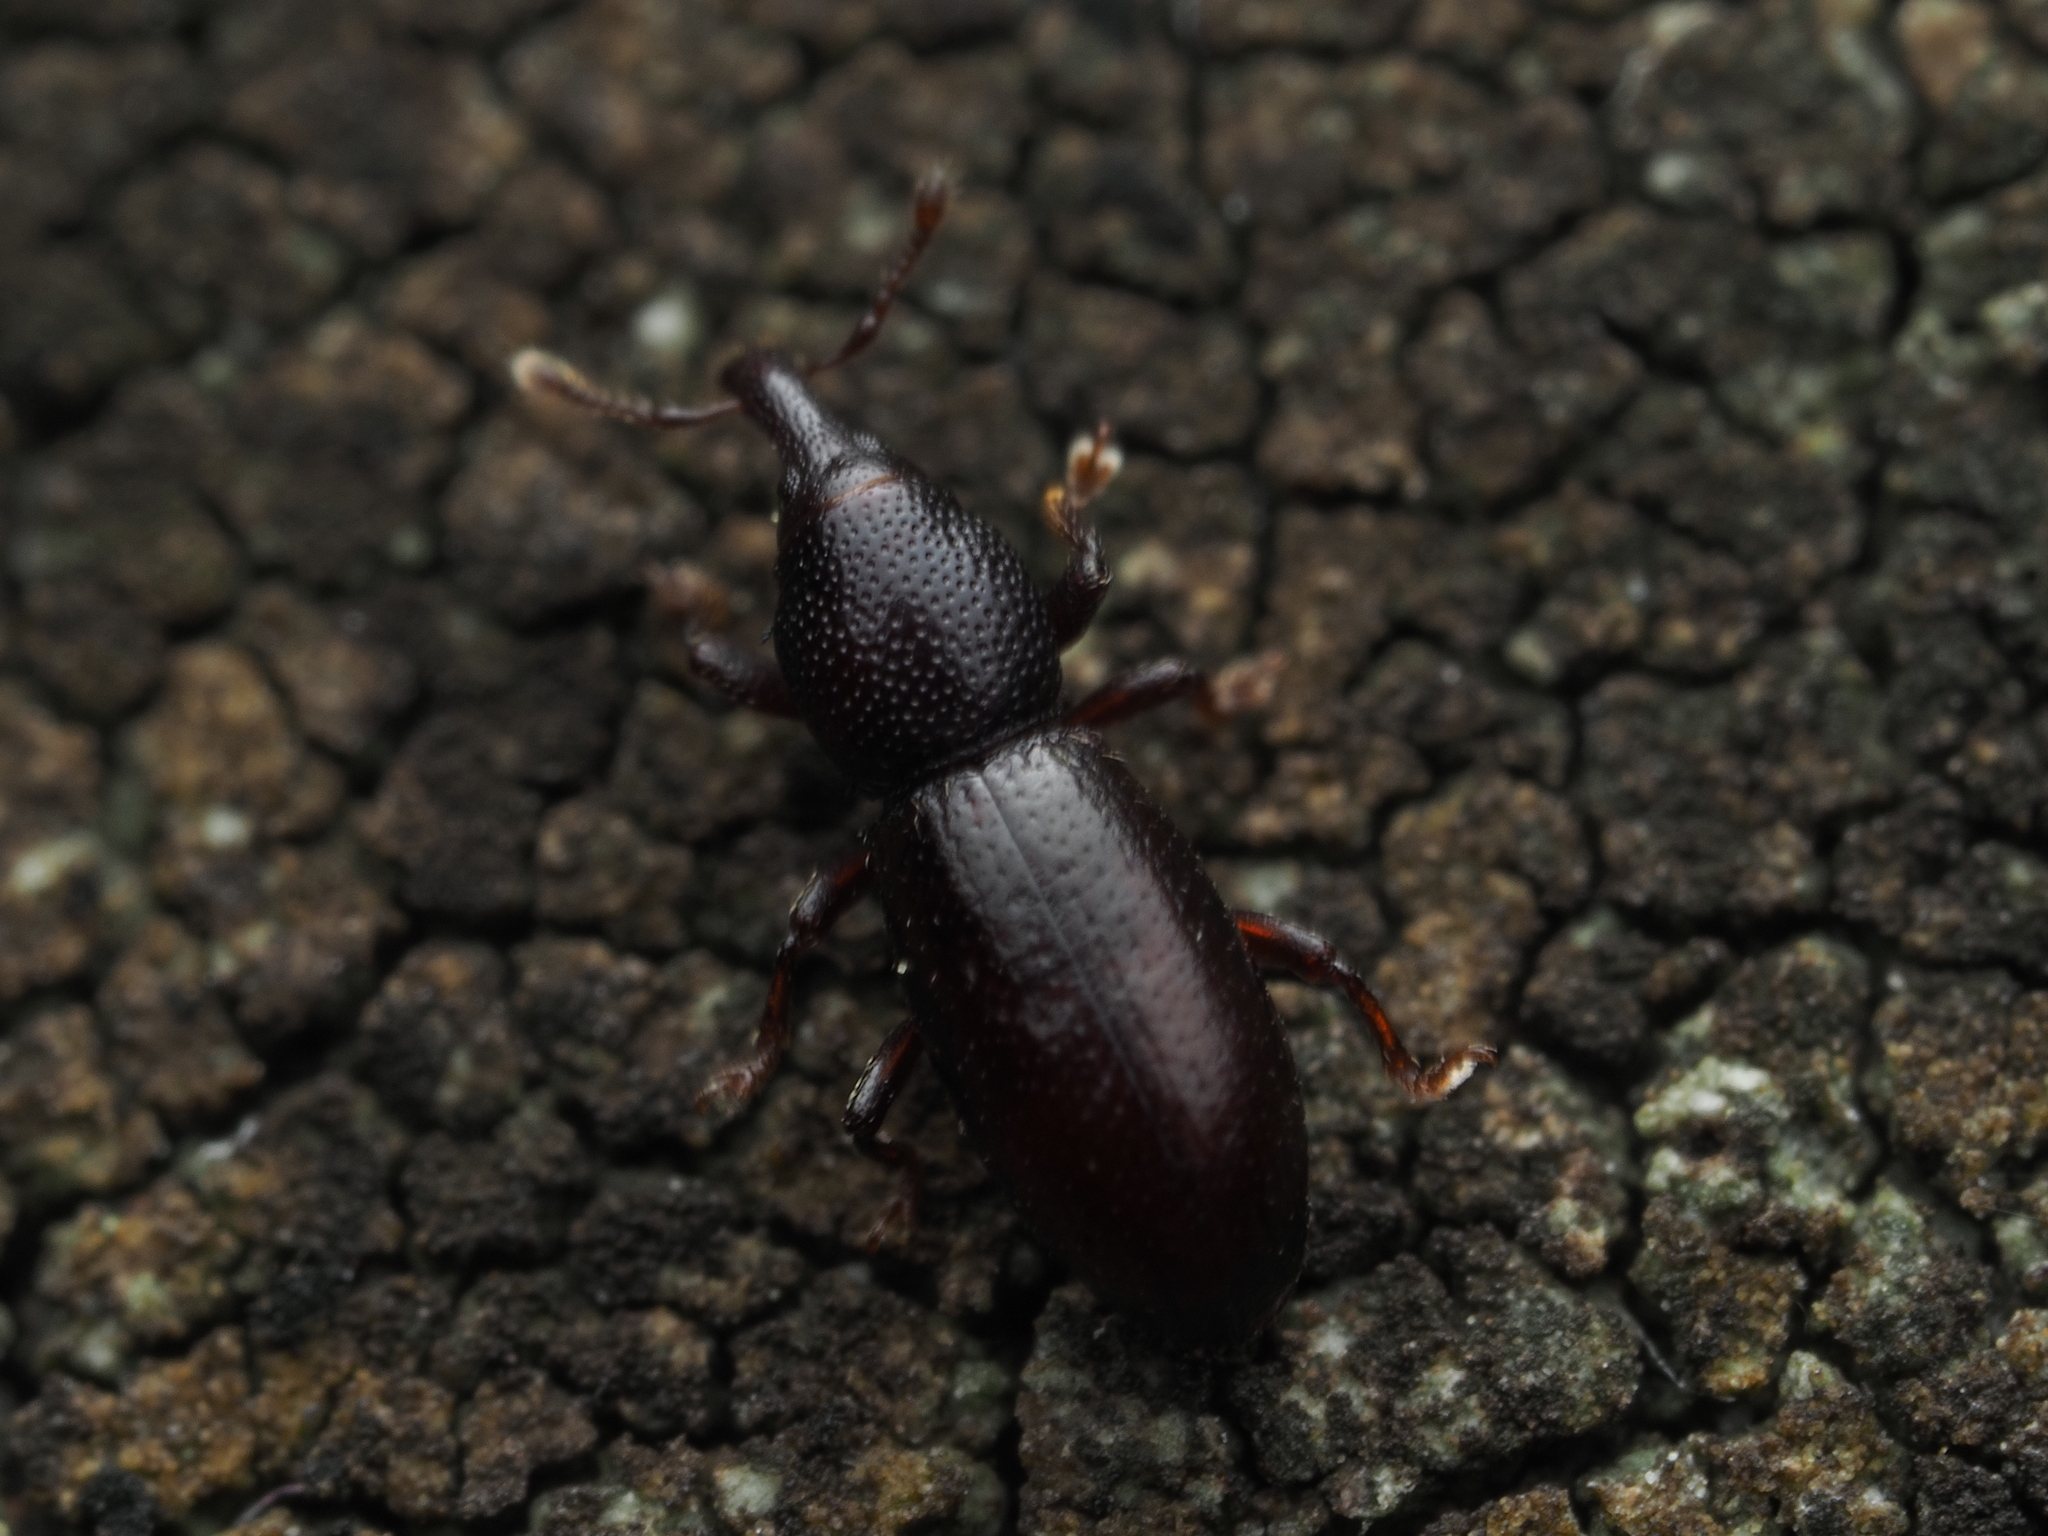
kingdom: Animalia
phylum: Arthropoda
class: Insecta
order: Coleoptera
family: Curculionidae
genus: Microtribus
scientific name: Microtribus huttoni
